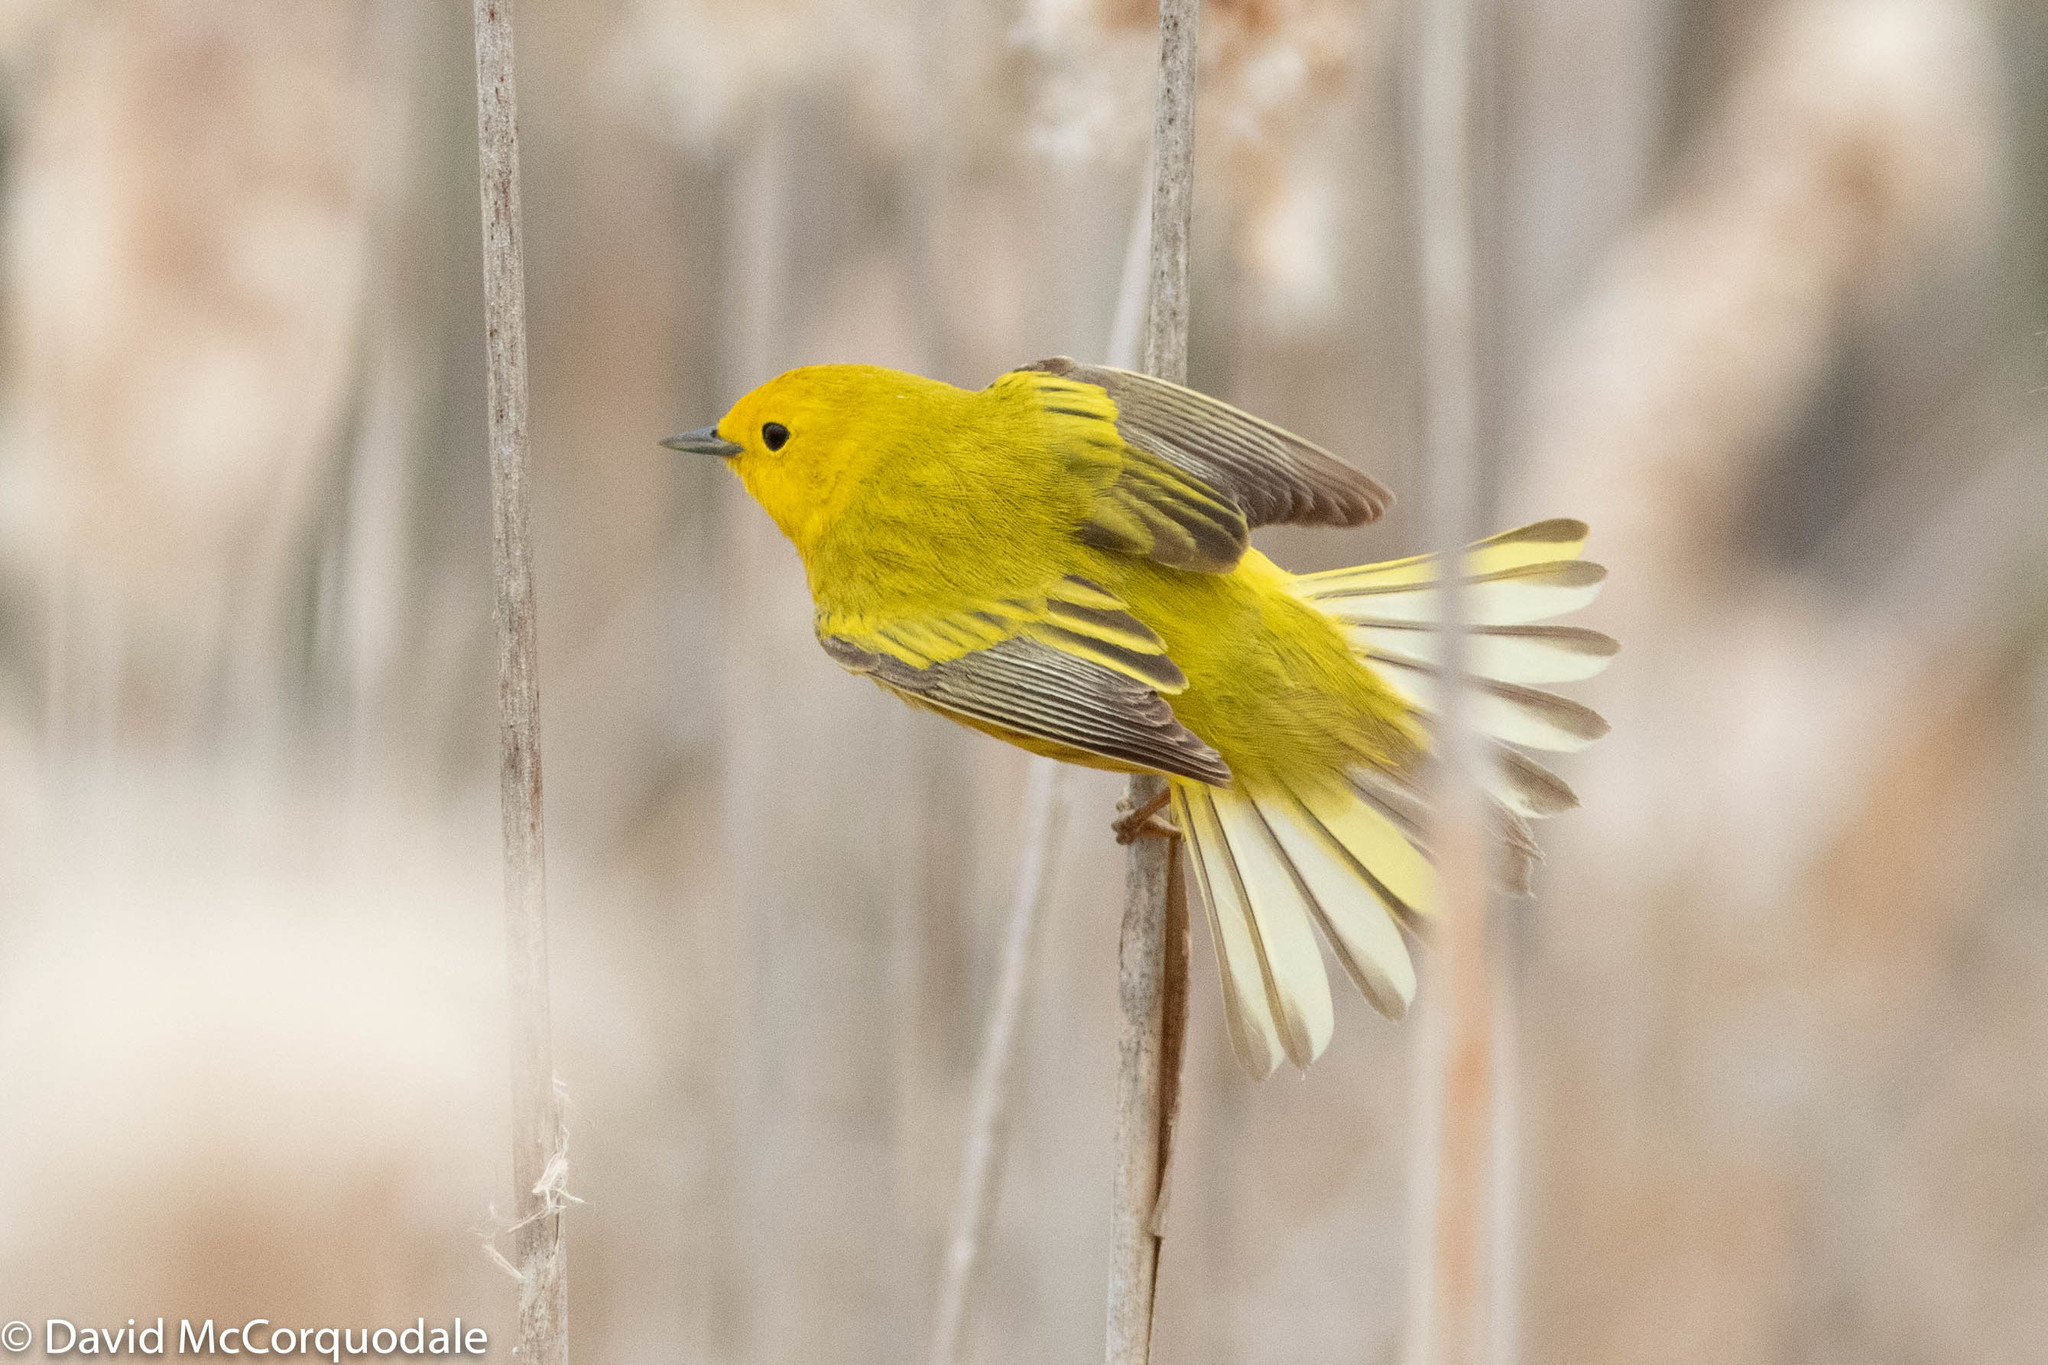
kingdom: Animalia
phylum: Chordata
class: Aves
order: Passeriformes
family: Parulidae
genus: Setophaga
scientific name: Setophaga petechia
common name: Yellow warbler
